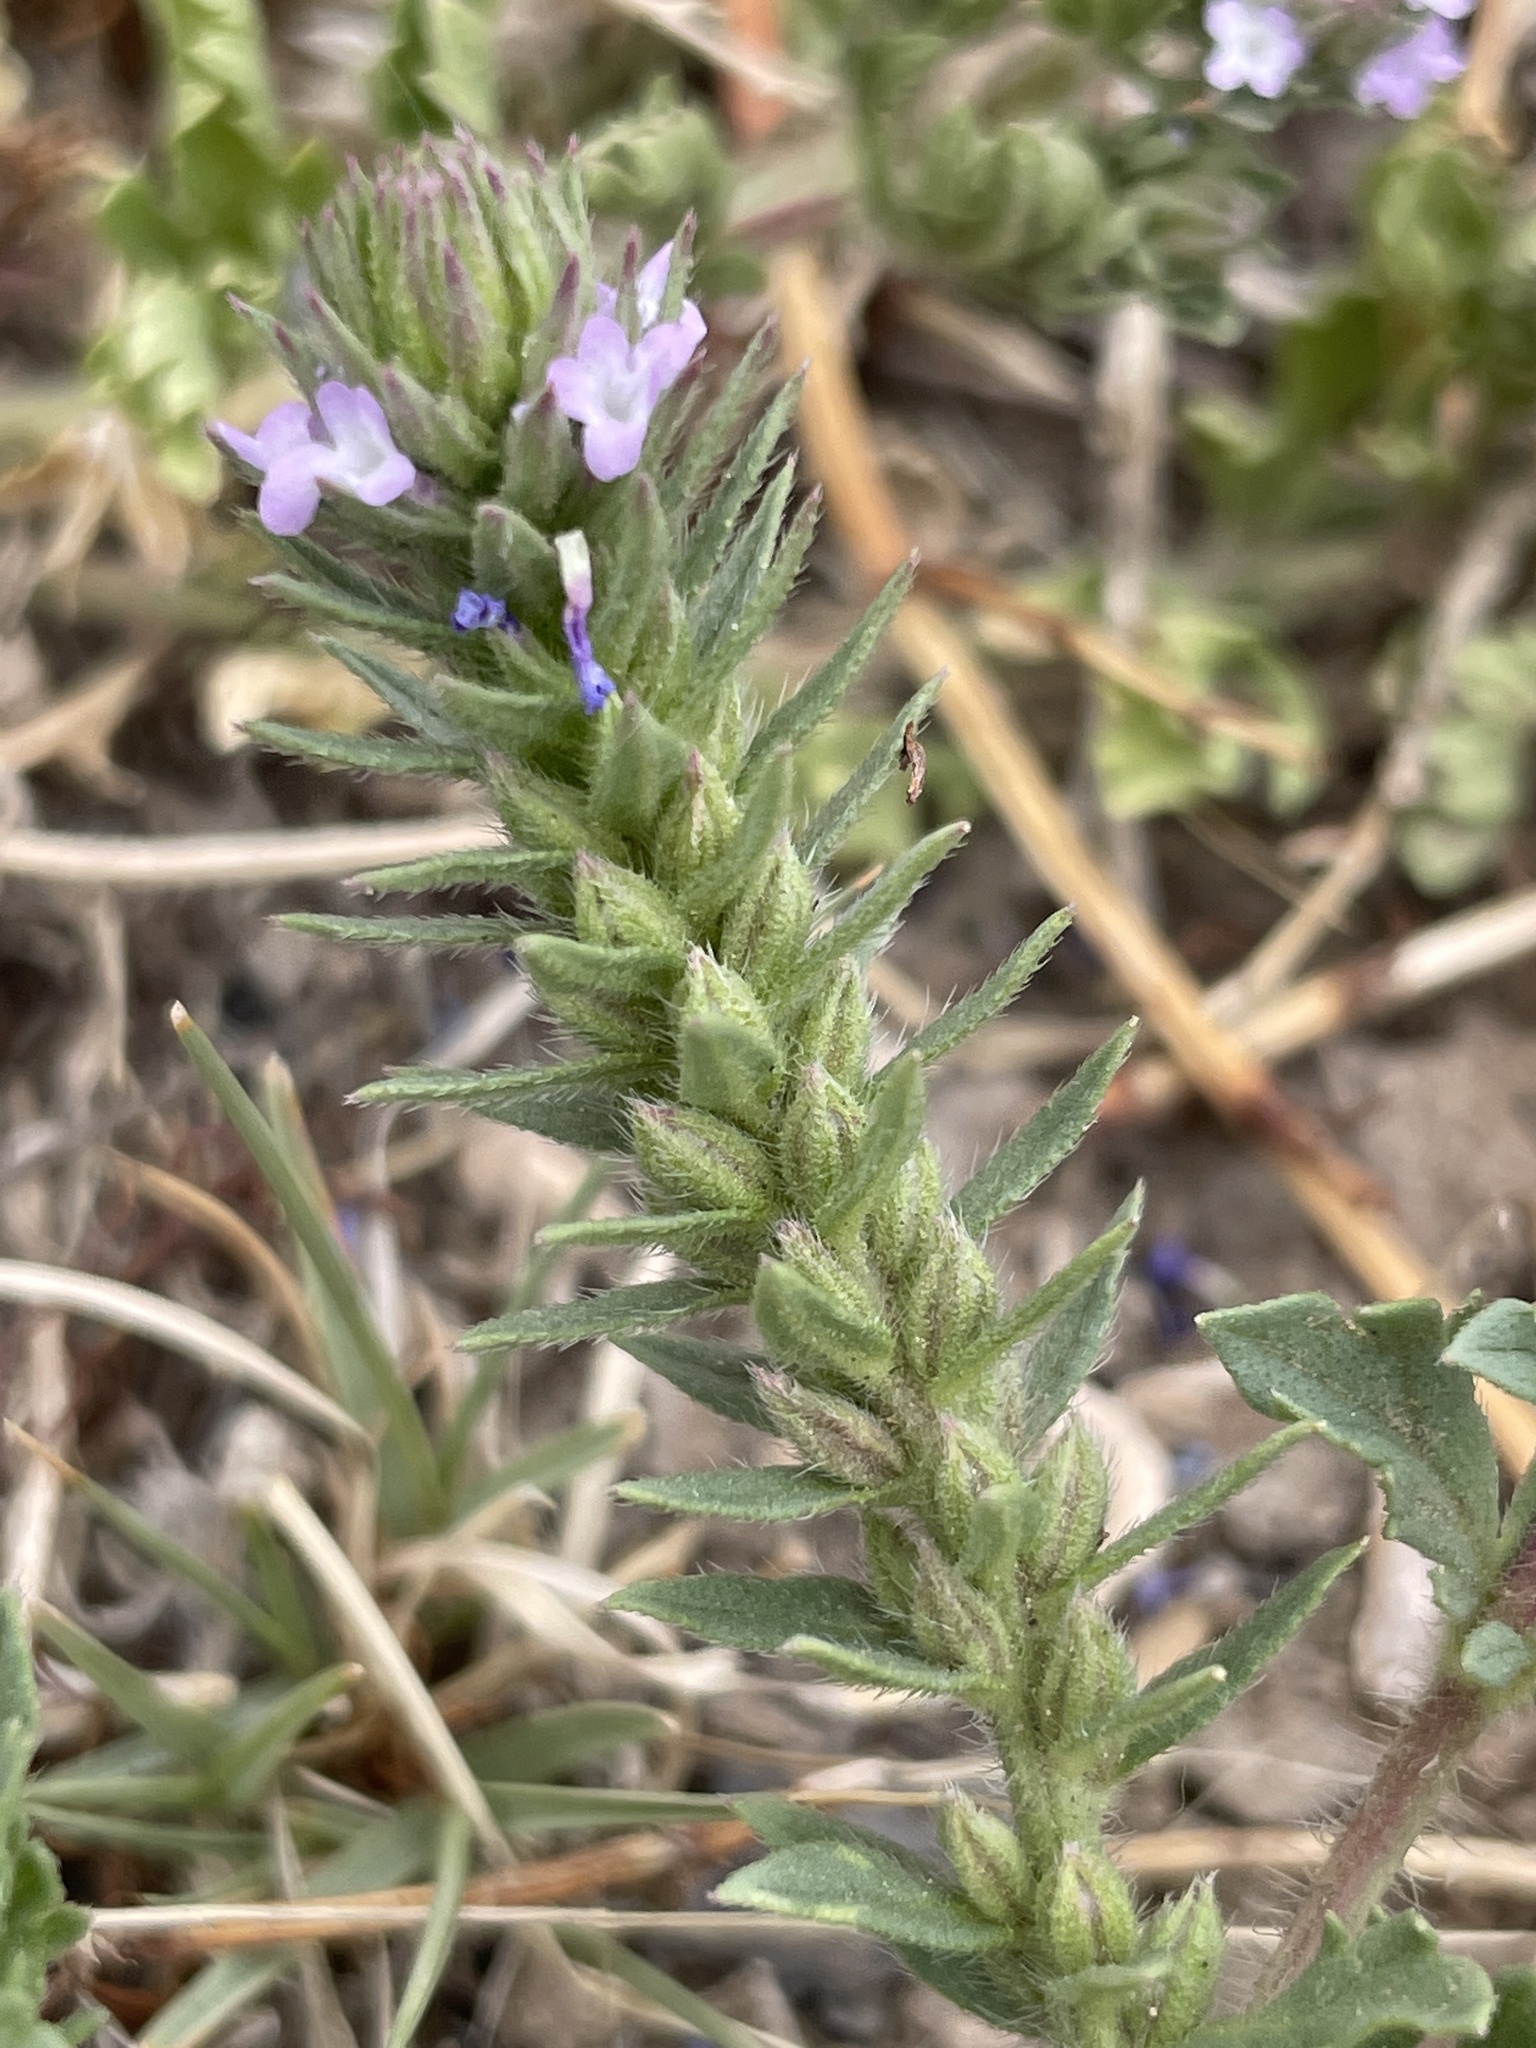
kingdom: Plantae
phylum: Tracheophyta
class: Magnoliopsida
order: Lamiales
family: Verbenaceae
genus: Verbena
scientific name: Verbena bracteata
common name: Bracted vervain
